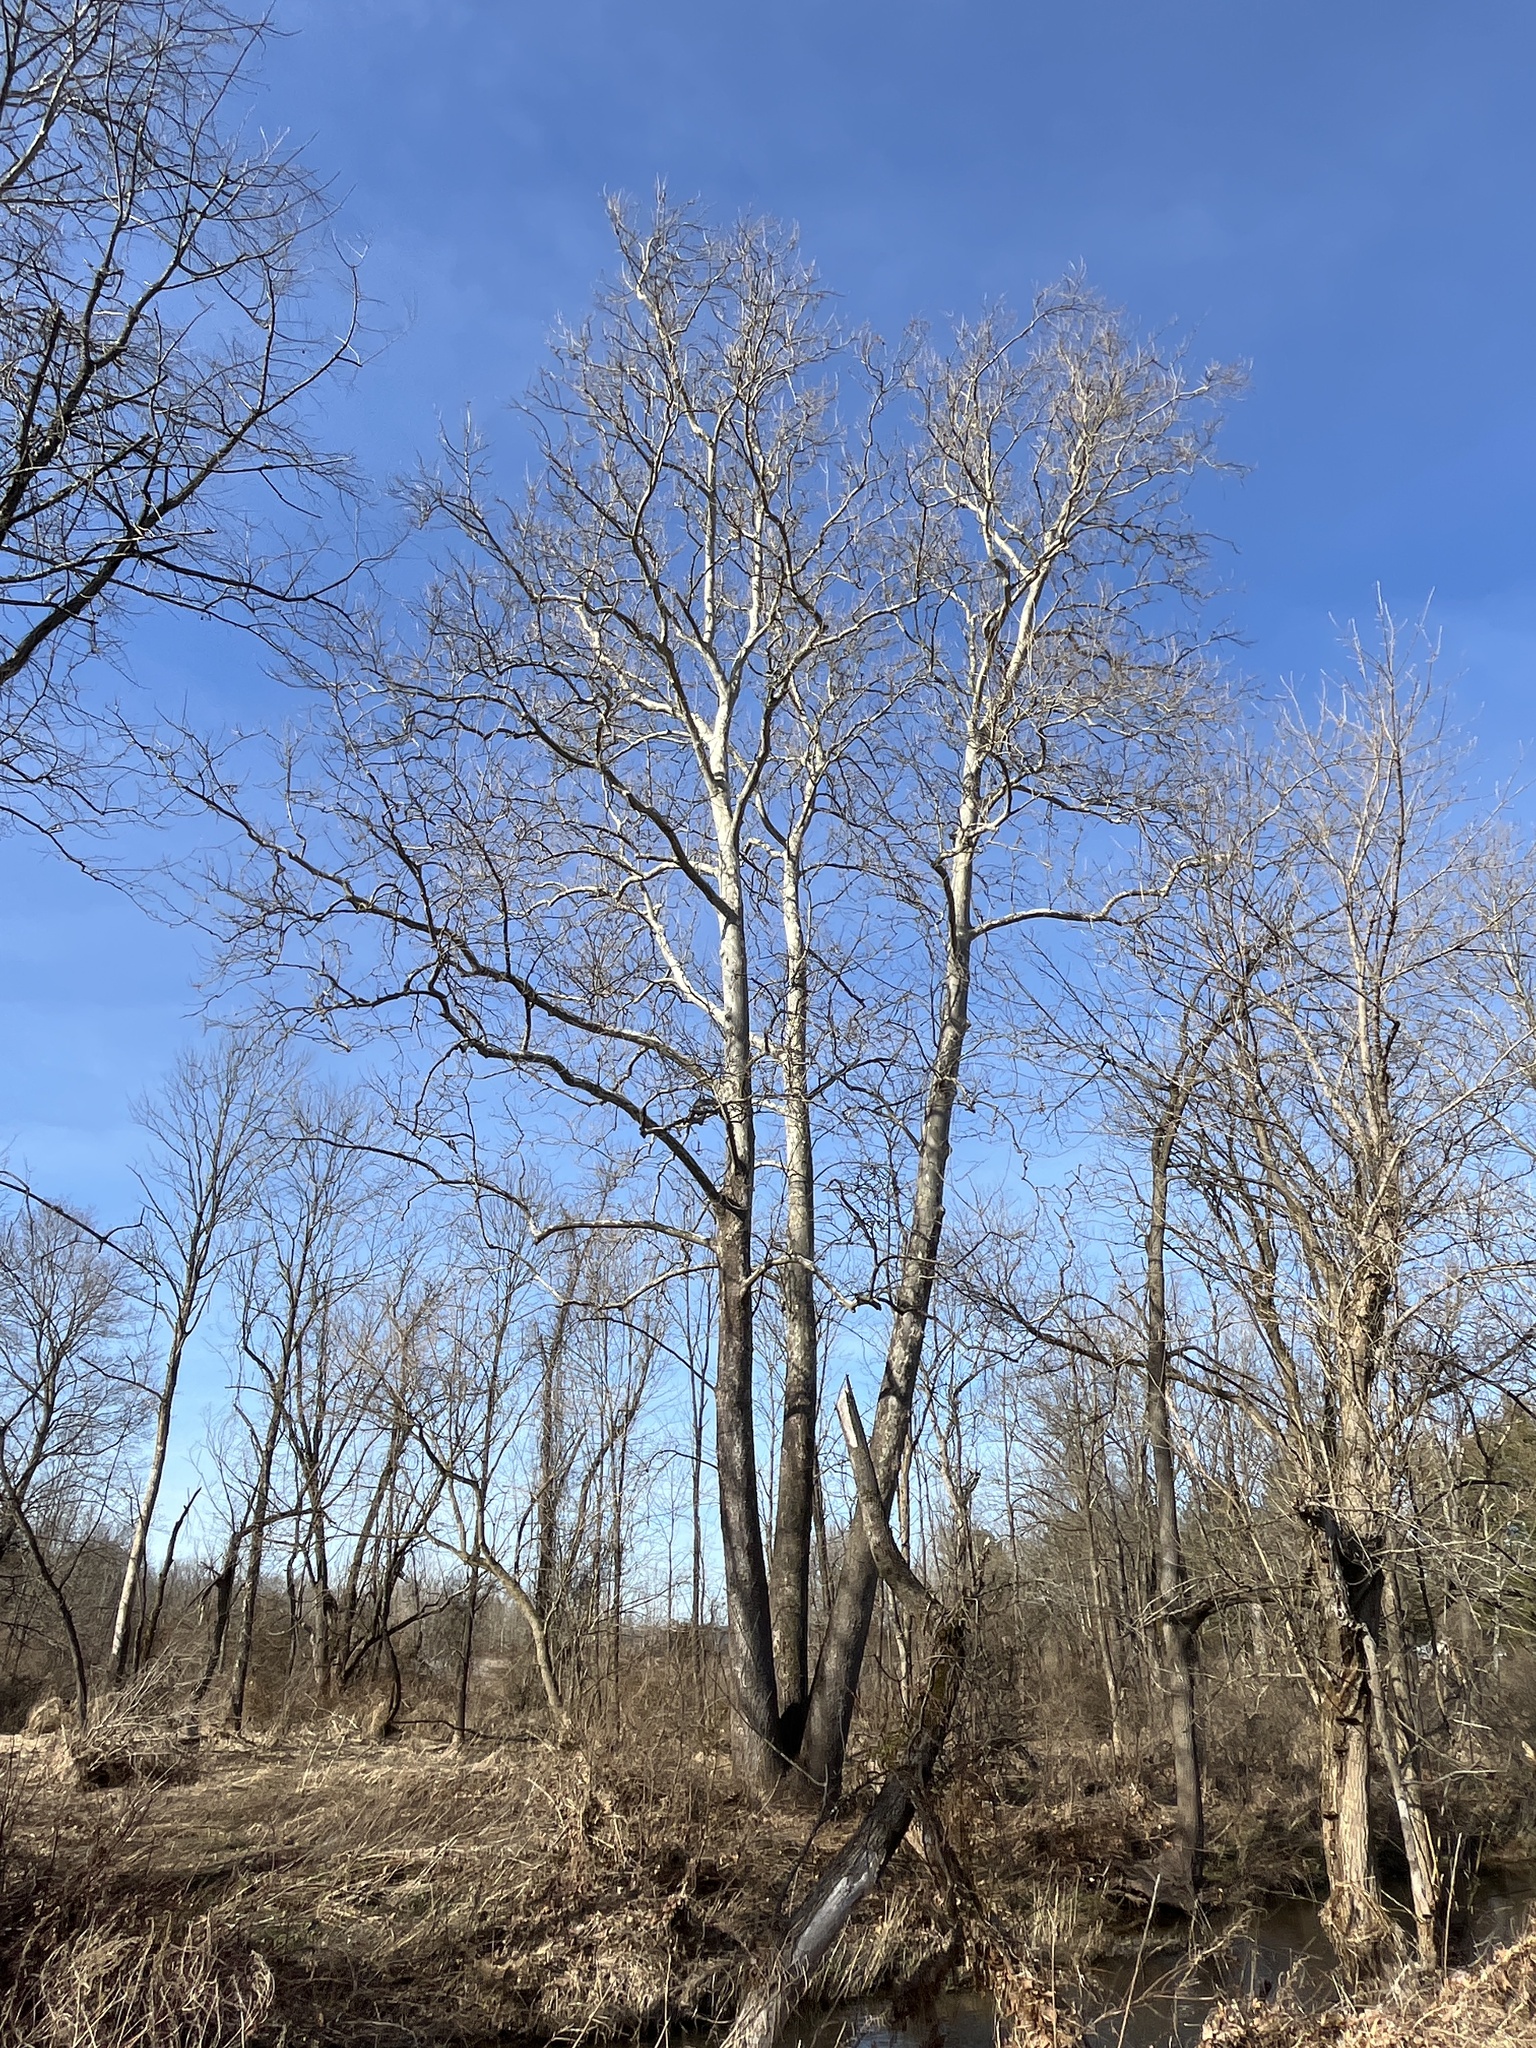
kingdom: Plantae
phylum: Tracheophyta
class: Magnoliopsida
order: Proteales
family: Platanaceae
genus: Platanus
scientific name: Platanus occidentalis
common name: American sycamore
